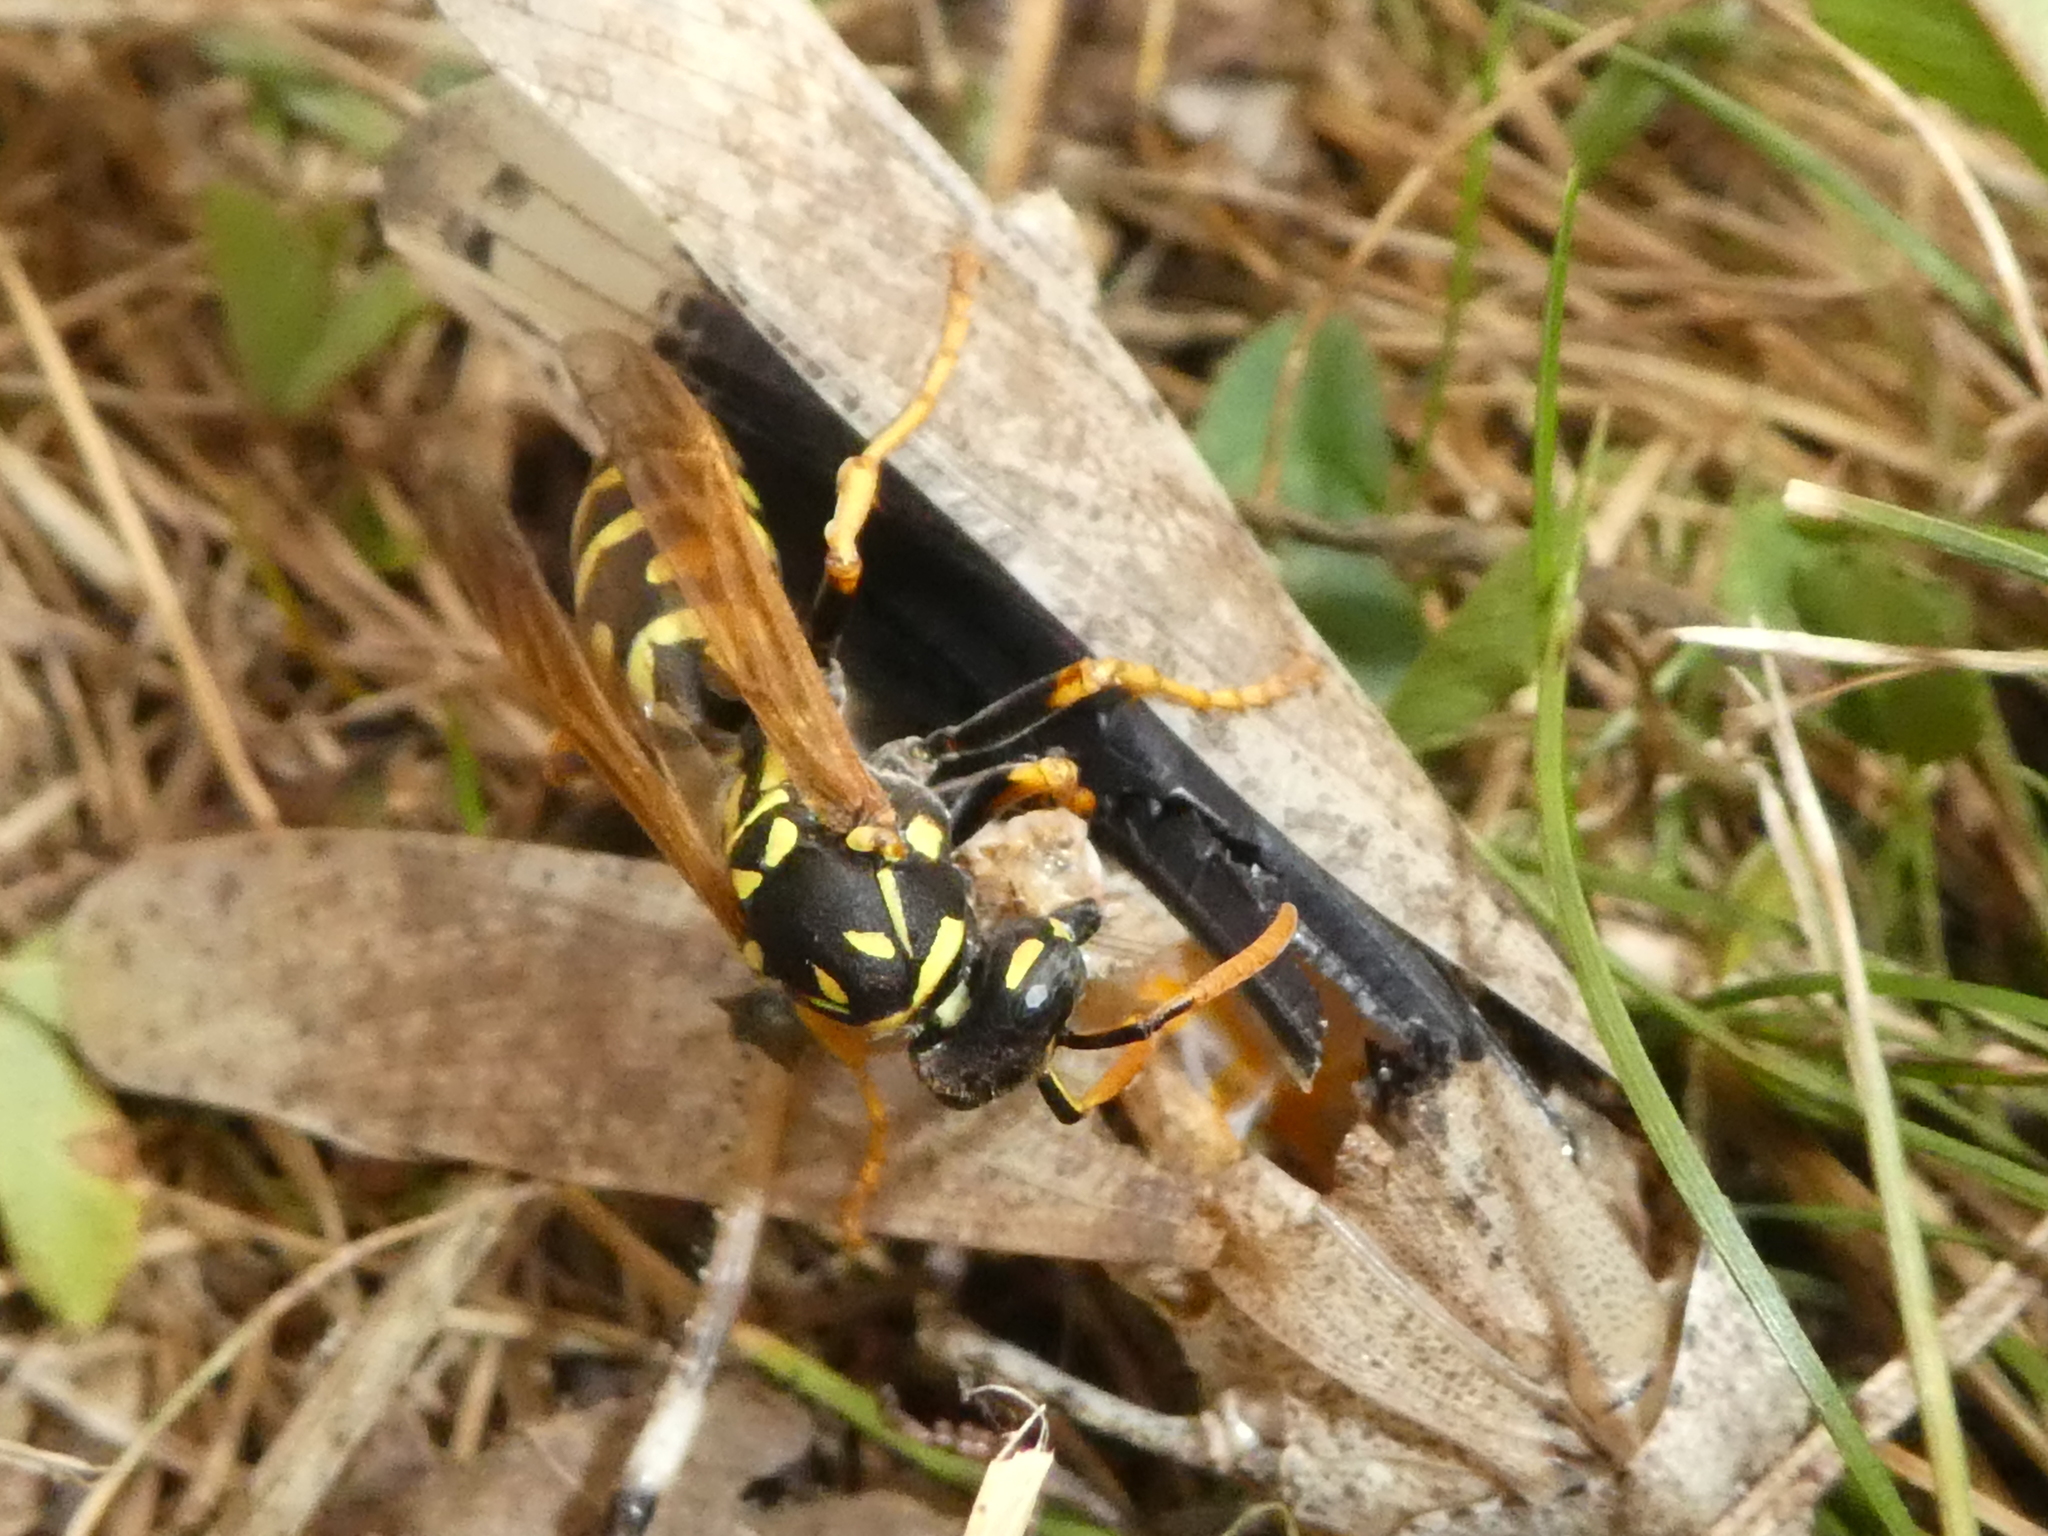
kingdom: Animalia
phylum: Arthropoda
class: Insecta
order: Orthoptera
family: Acrididae
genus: Dissosteira
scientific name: Dissosteira carolina
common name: Carolina grasshopper
